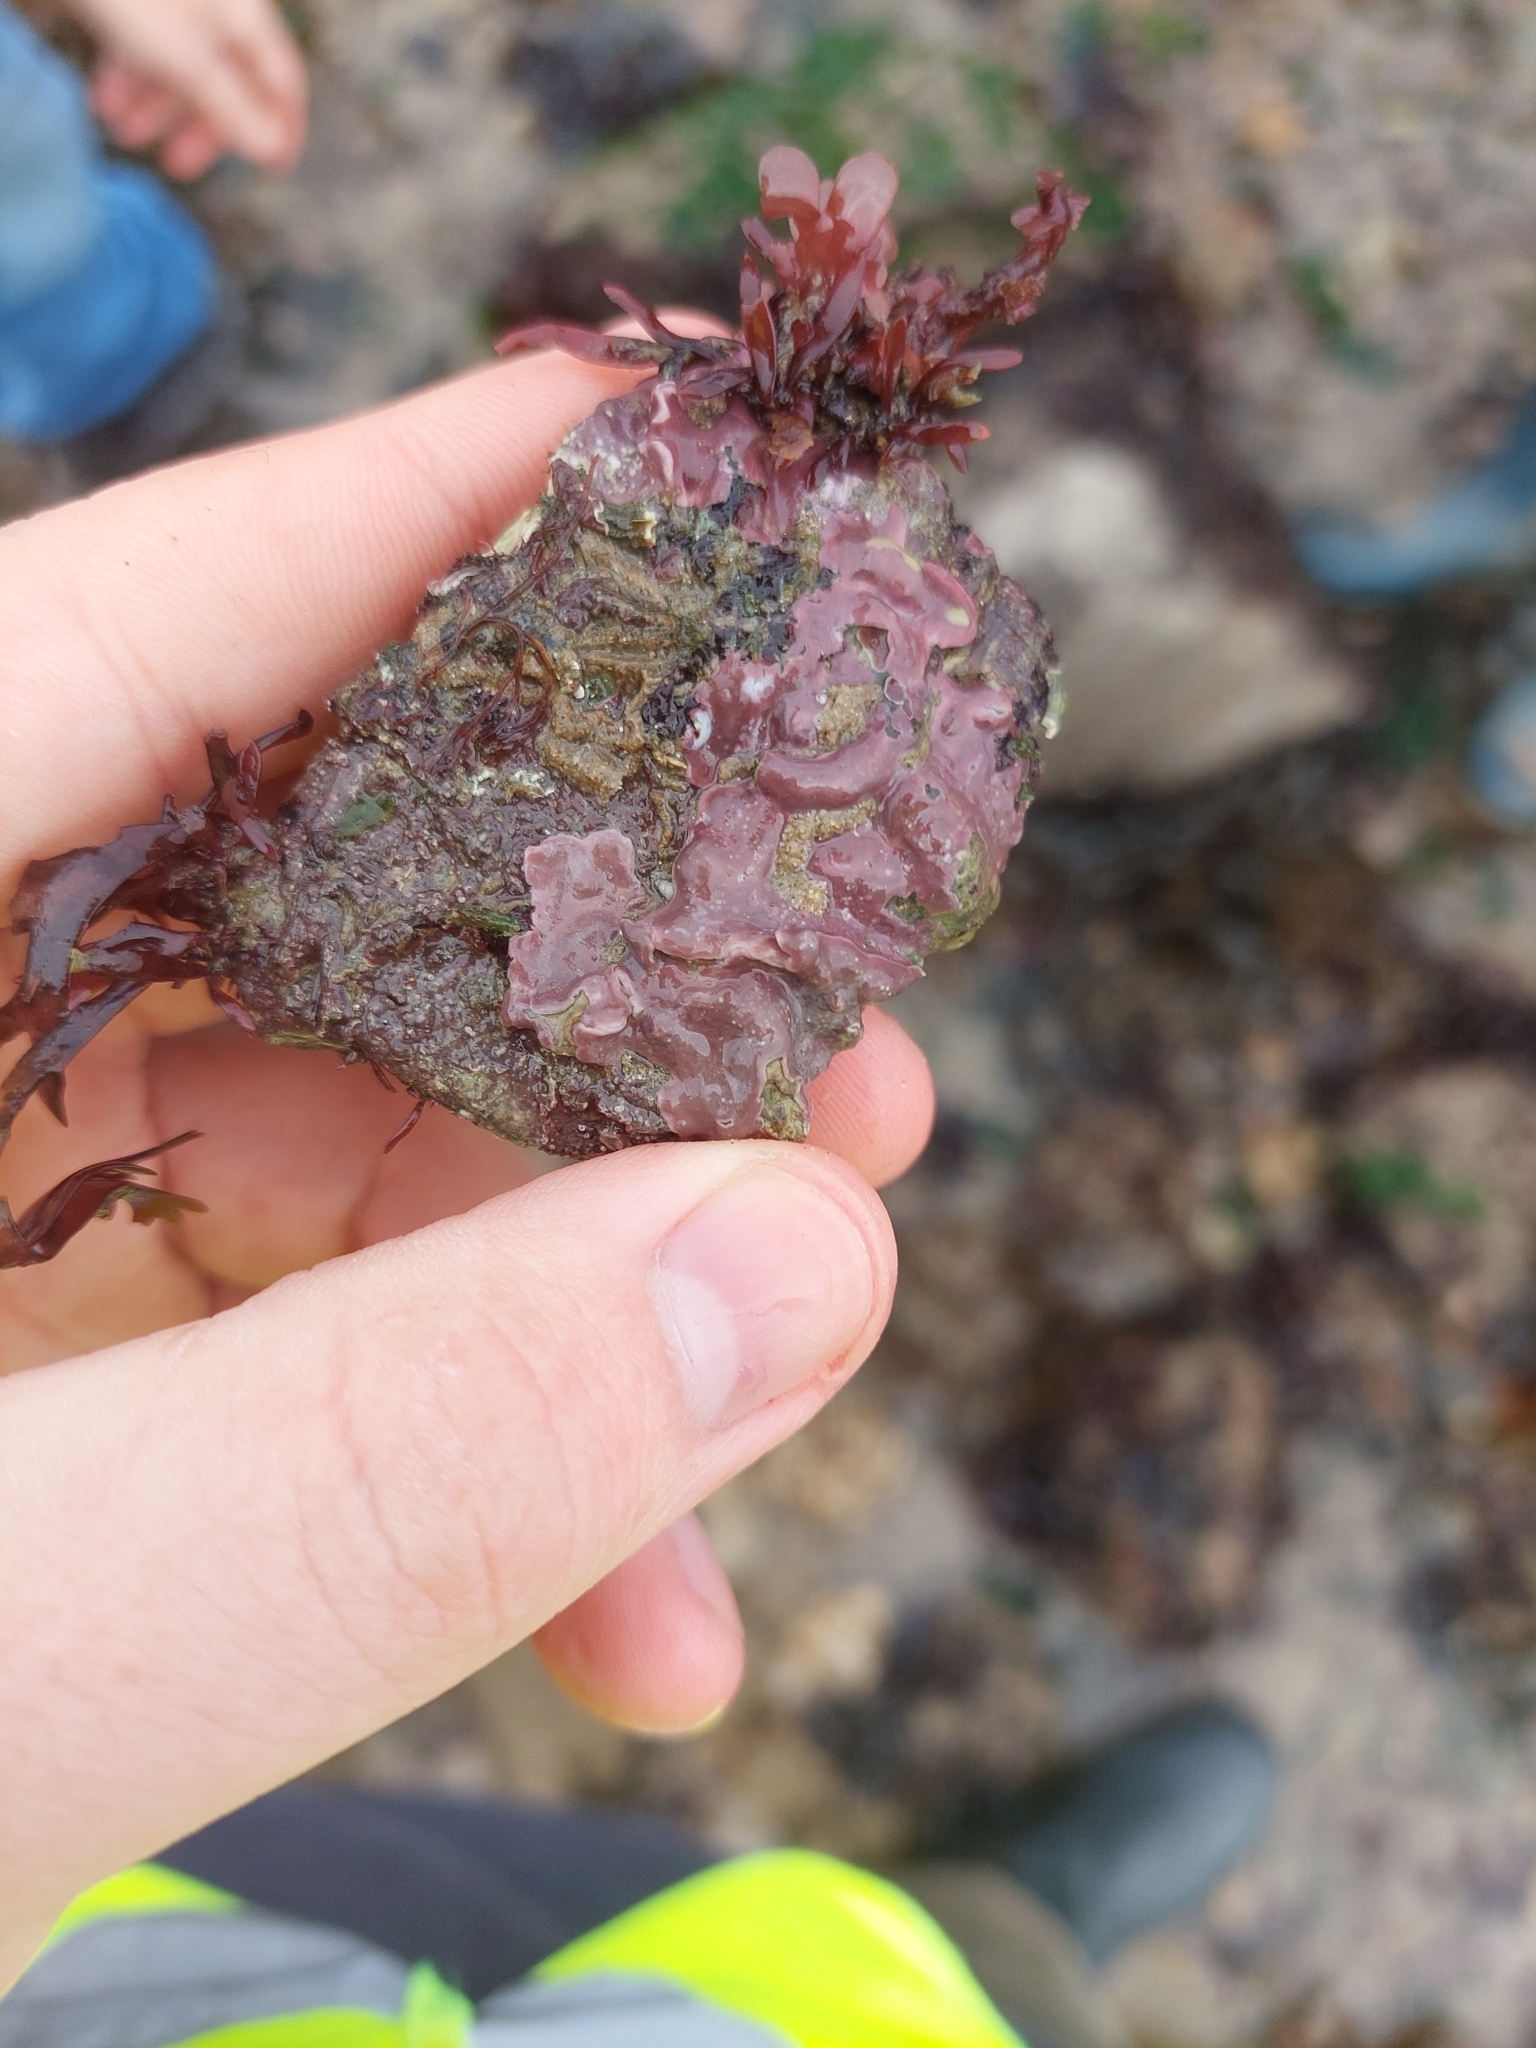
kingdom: Plantae
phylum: Rhodophyta
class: Florideophyceae
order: Corallinales
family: Lithophyllaceae
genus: Lithophyllum
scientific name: Lithophyllum incrustans
